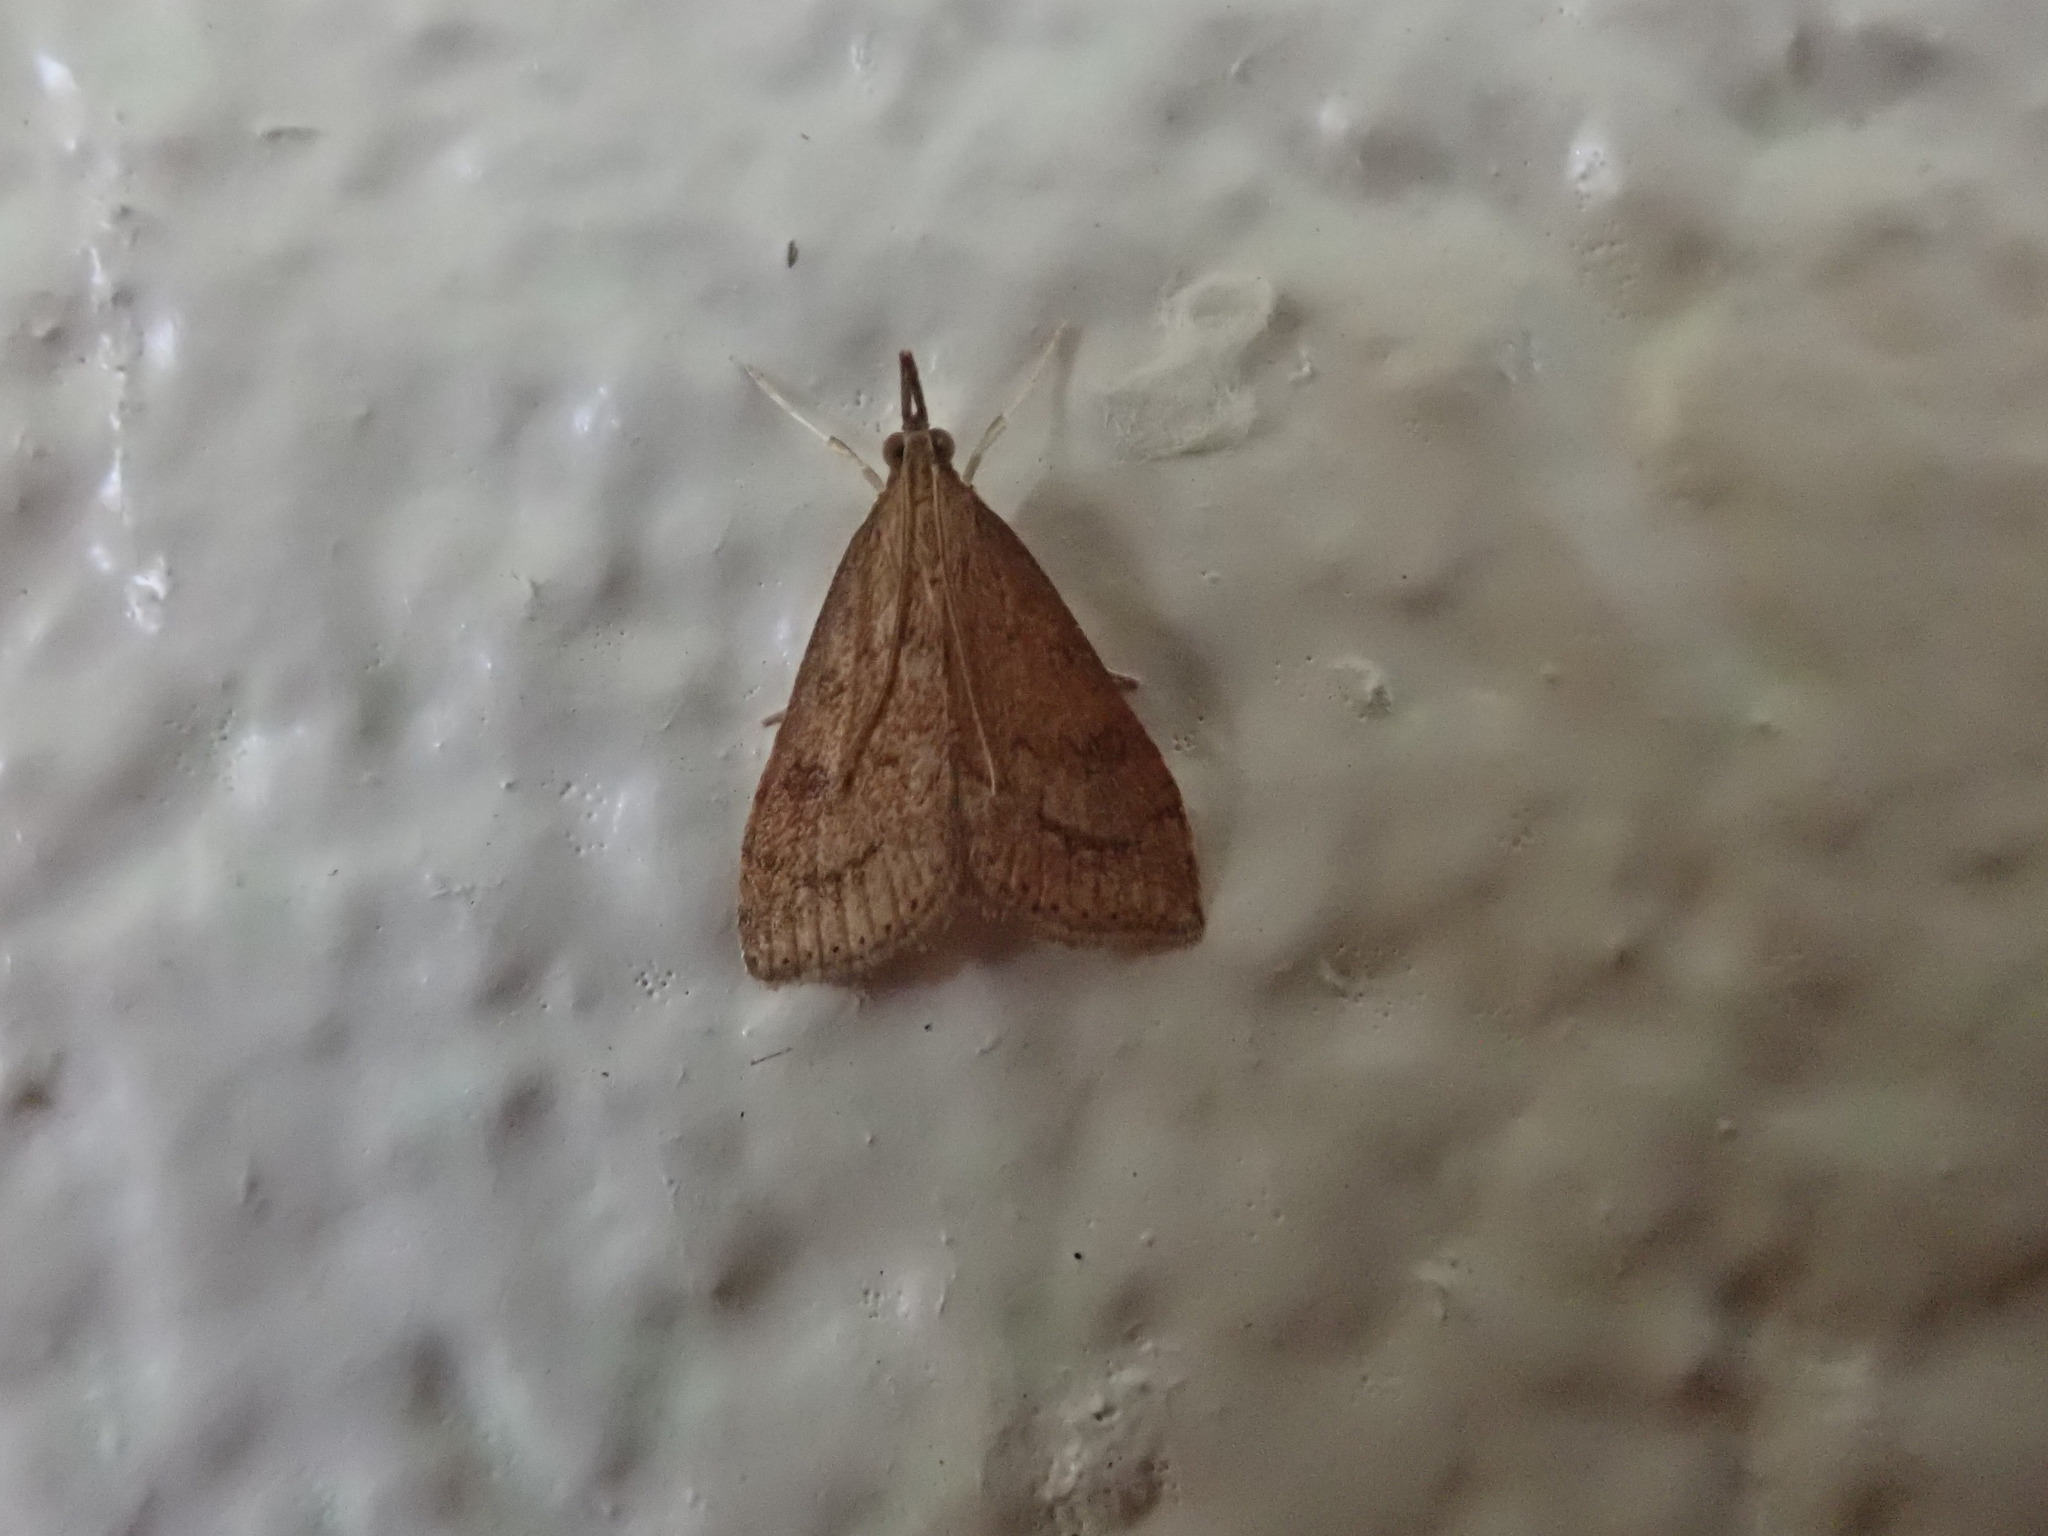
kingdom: Animalia
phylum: Arthropoda
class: Insecta
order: Lepidoptera
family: Crambidae
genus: Udea
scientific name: Udea rubigalis
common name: Celery leaftier moth
